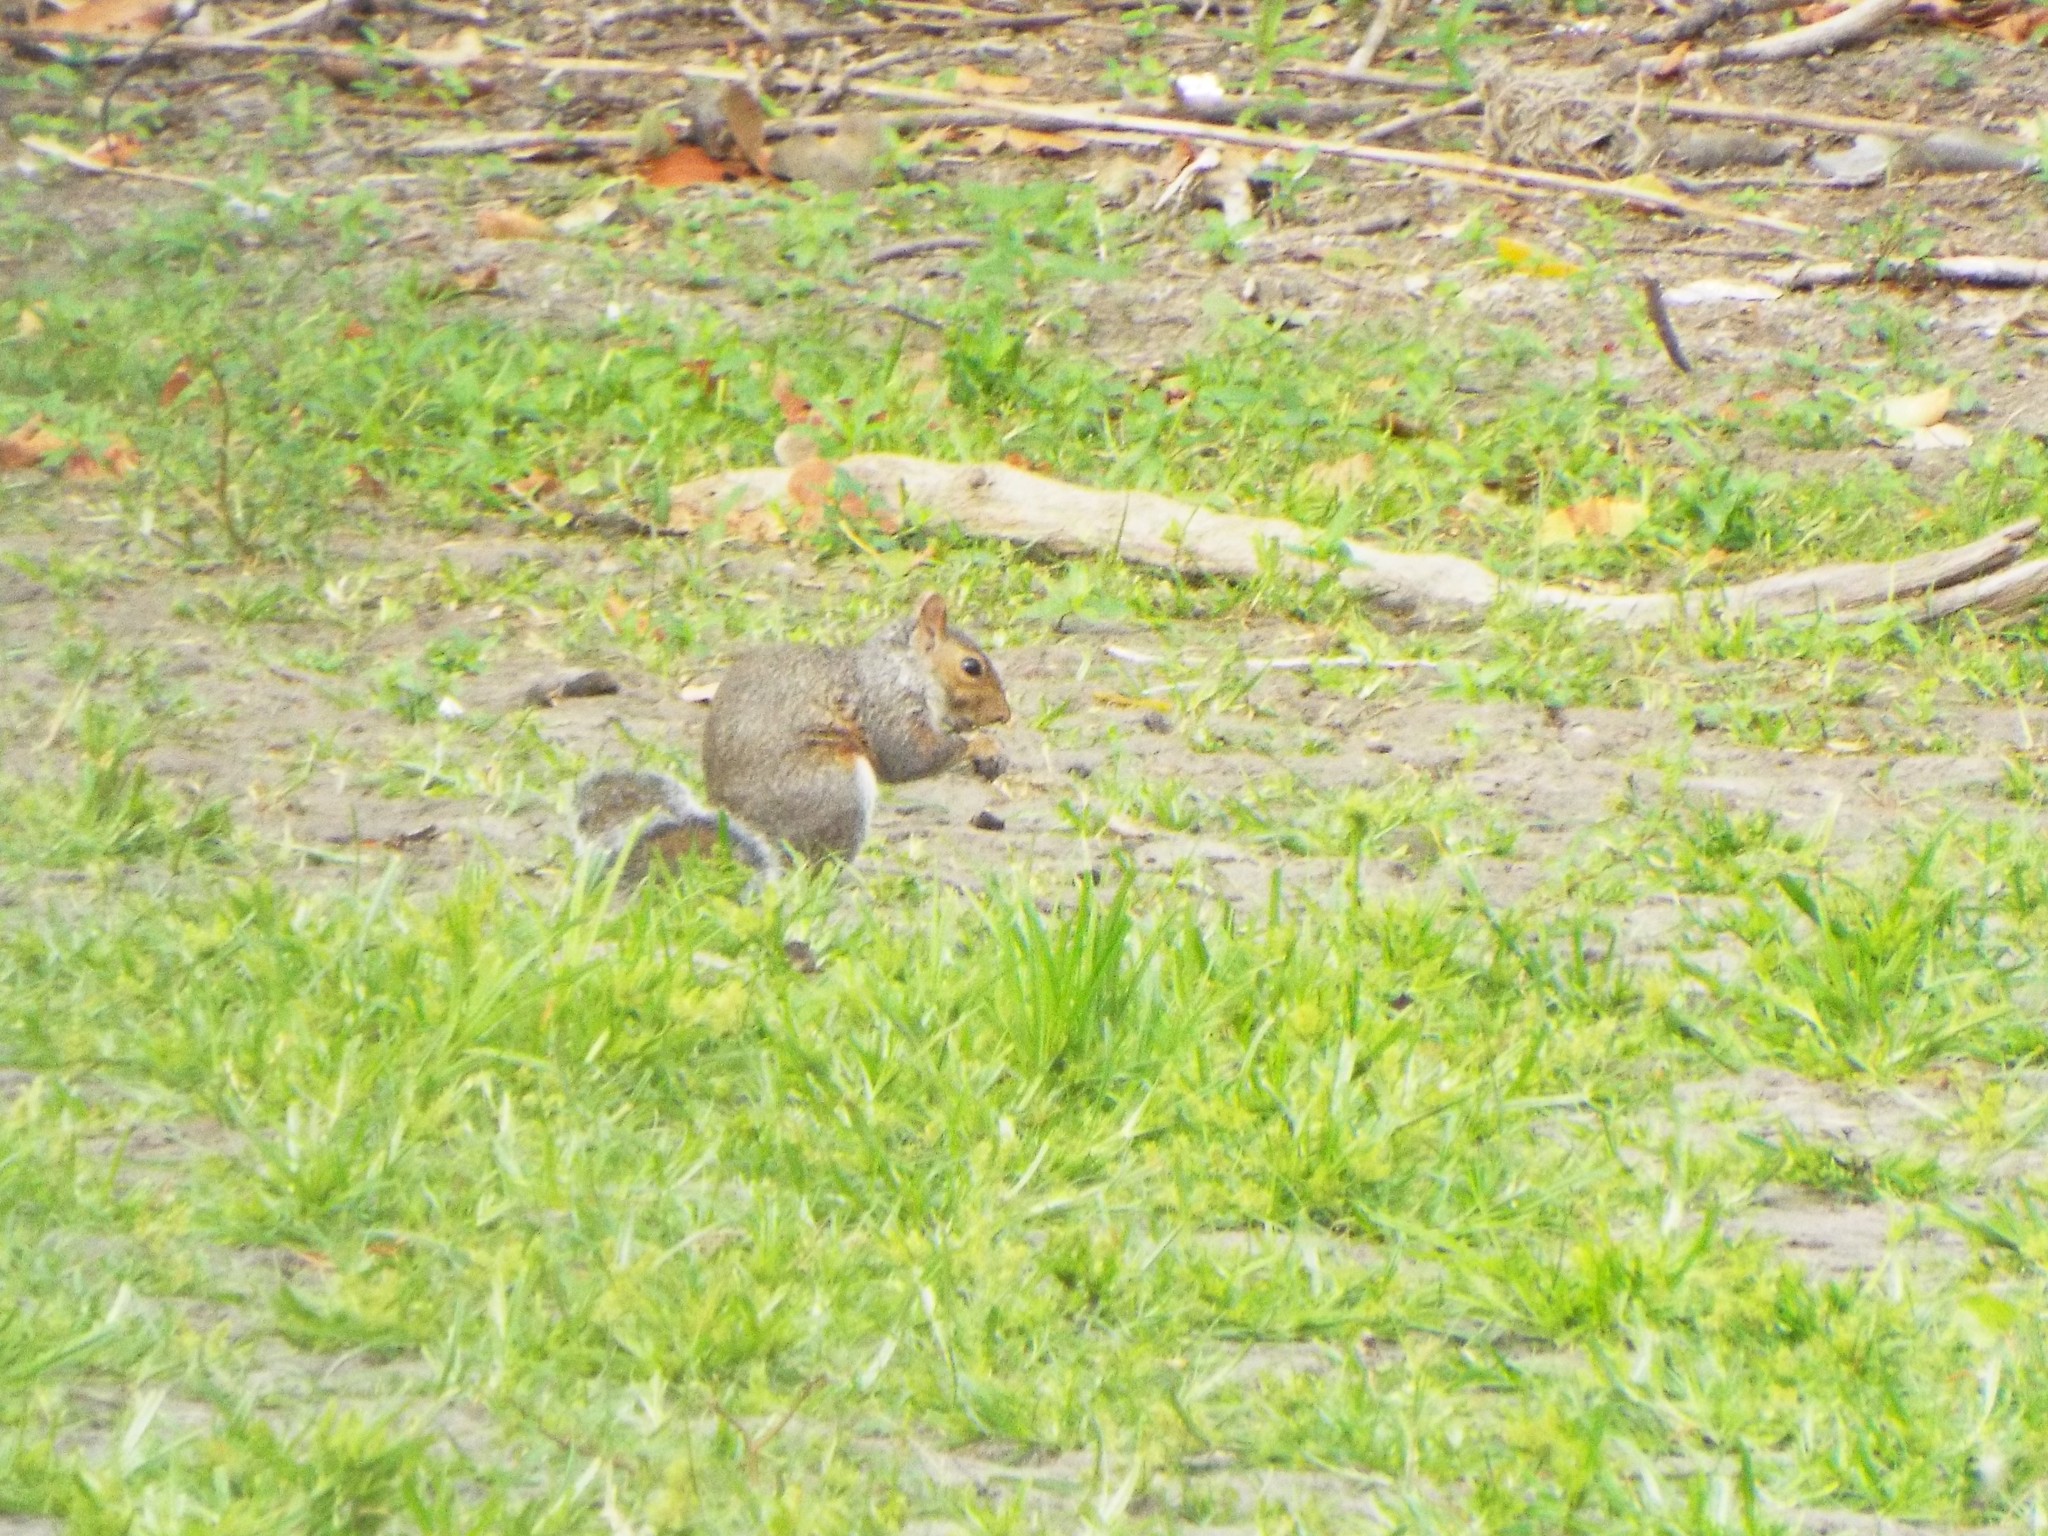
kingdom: Animalia
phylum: Chordata
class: Mammalia
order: Rodentia
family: Sciuridae
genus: Sciurus
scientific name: Sciurus carolinensis
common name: Eastern gray squirrel
